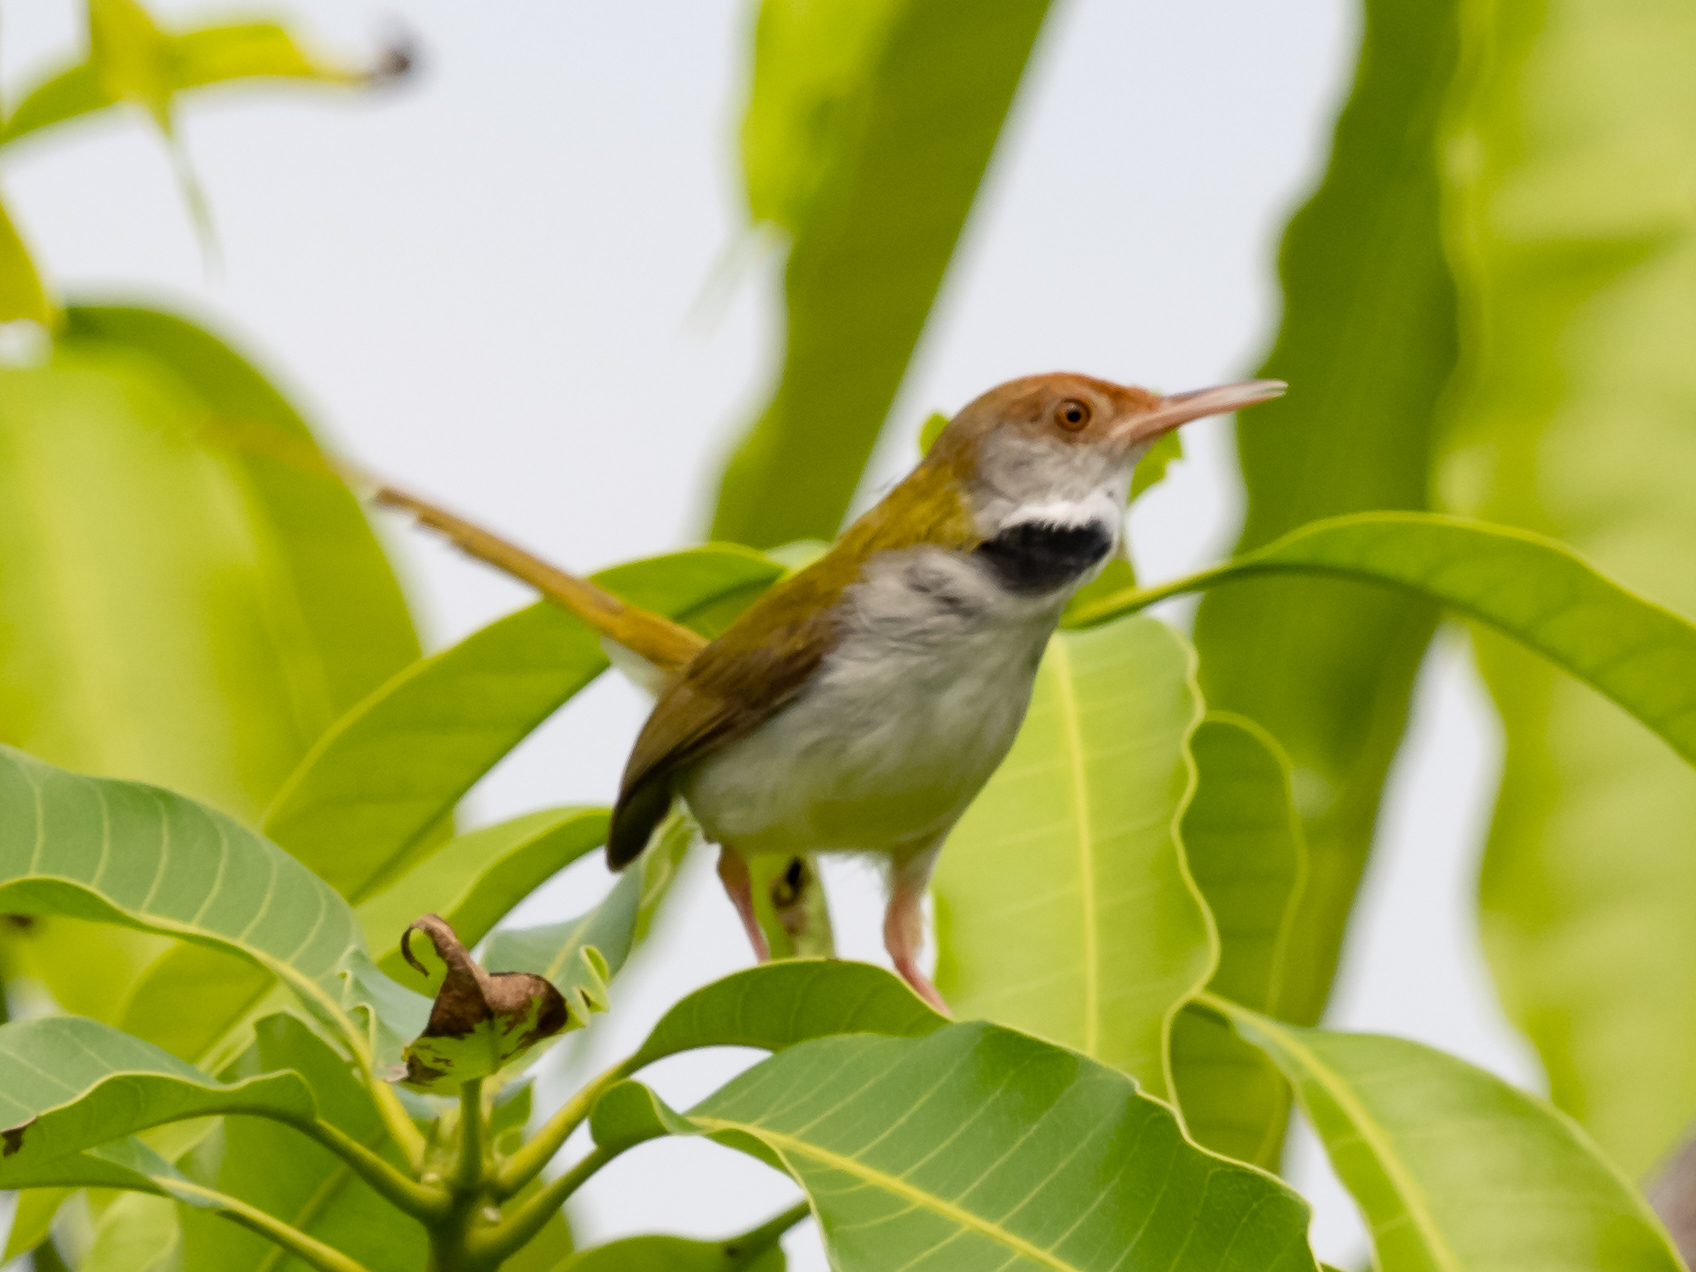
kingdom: Animalia
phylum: Chordata
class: Aves
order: Passeriformes
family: Cisticolidae
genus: Orthotomus
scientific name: Orthotomus sutorius
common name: Common tailorbird
